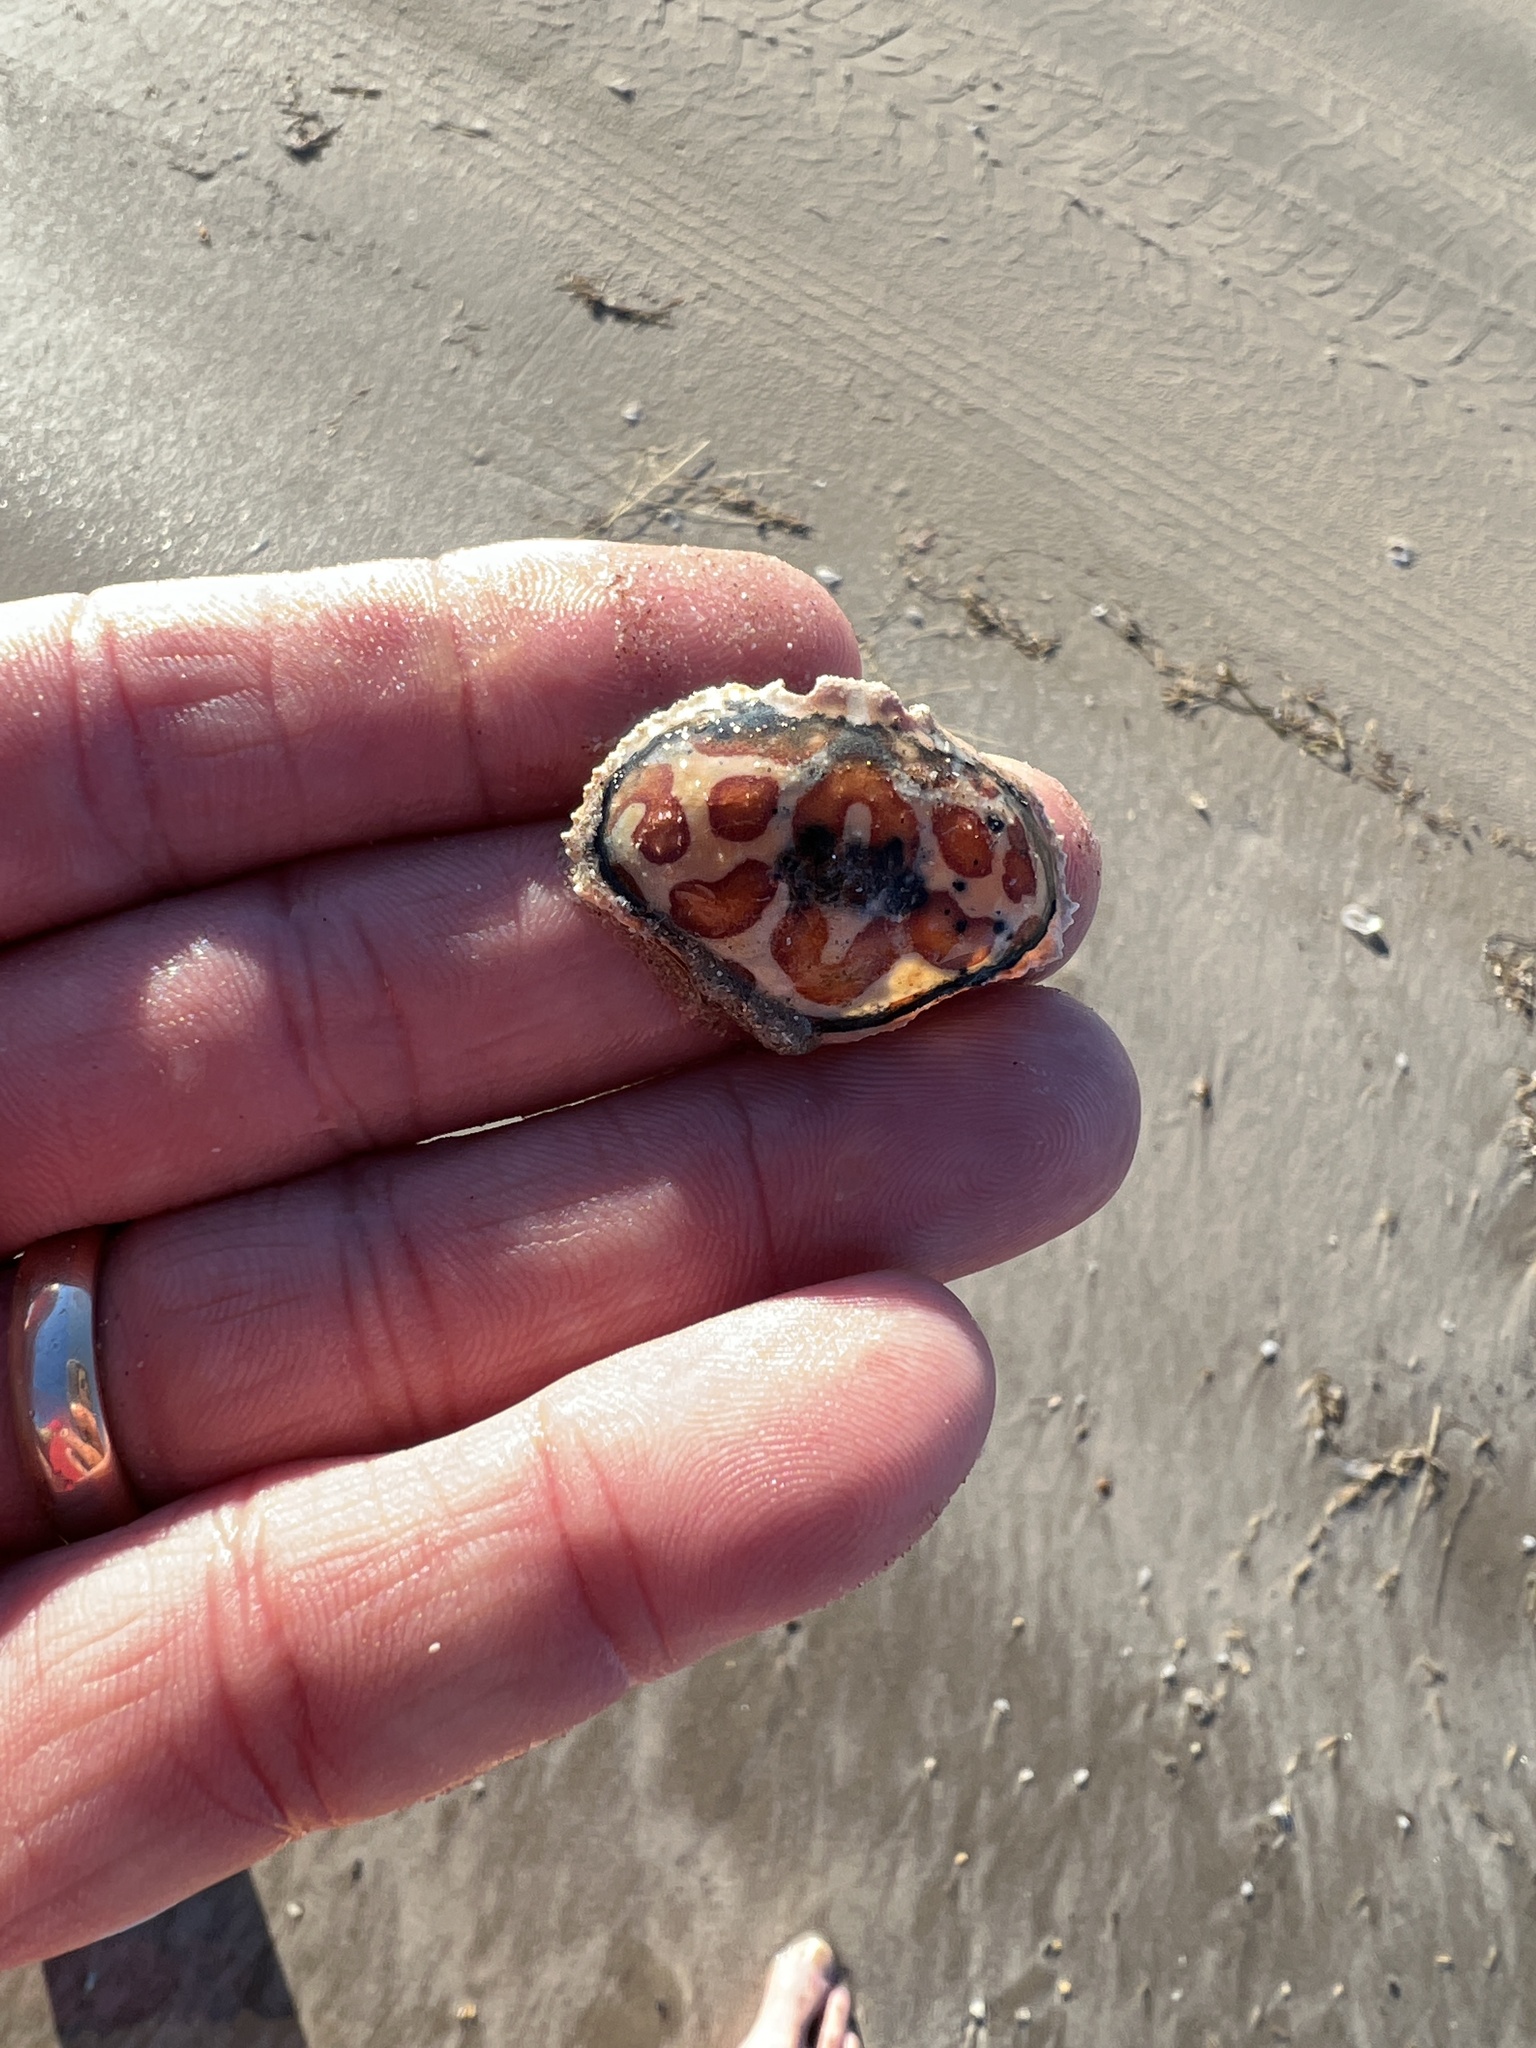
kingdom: Animalia
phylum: Arthropoda
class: Malacostraca
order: Decapoda
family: Aethridae
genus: Hepatus
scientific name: Hepatus epheliticus
